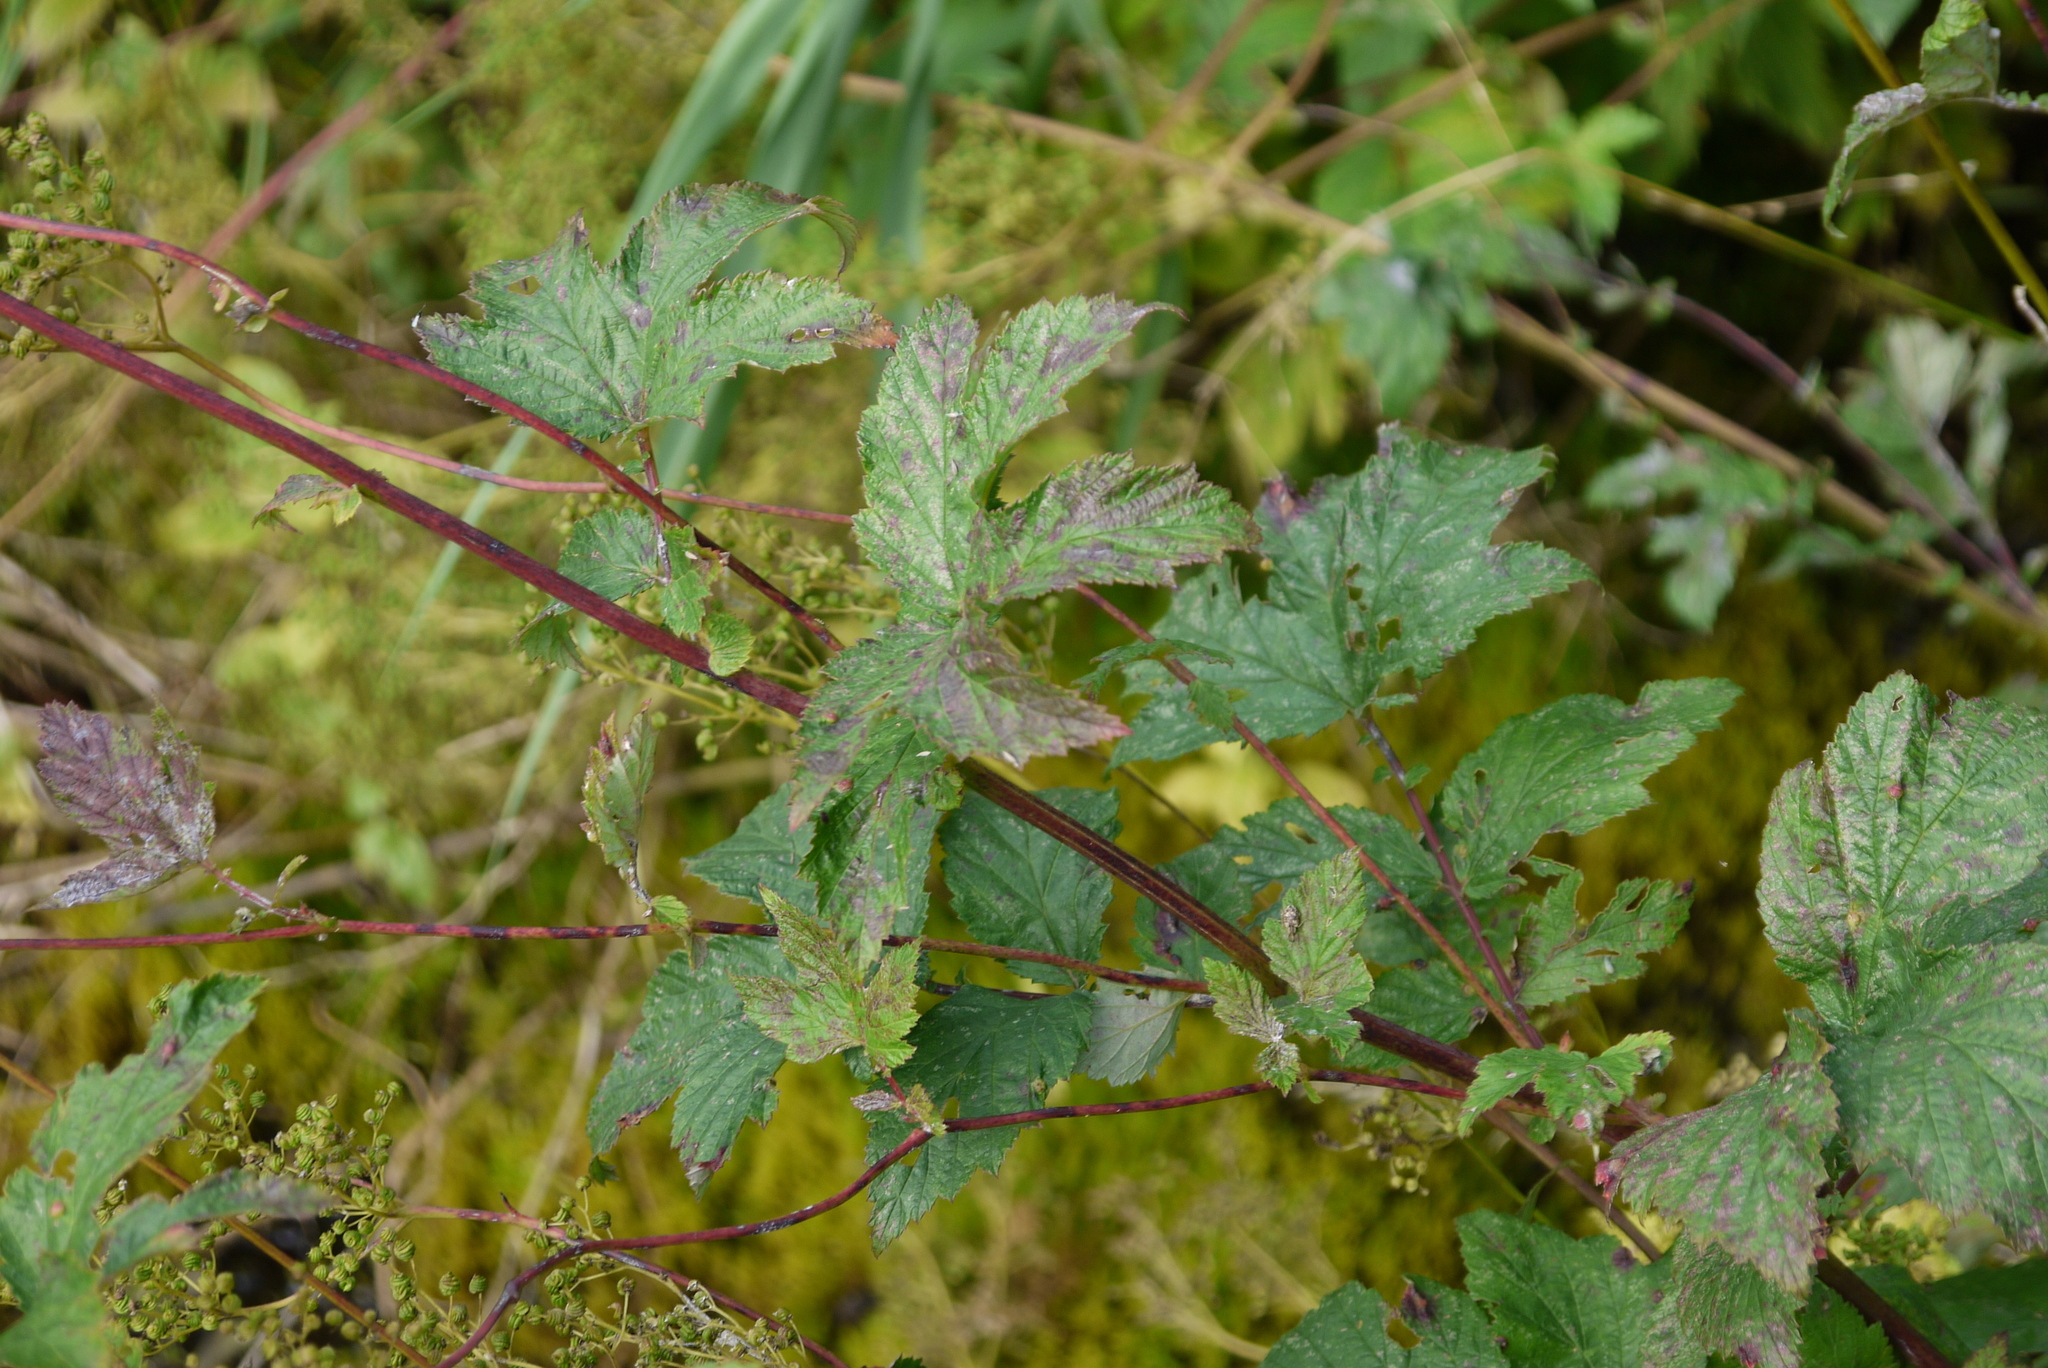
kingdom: Plantae
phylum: Tracheophyta
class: Magnoliopsida
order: Rosales
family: Rosaceae
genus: Filipendula
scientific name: Filipendula ulmaria
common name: Meadowsweet
